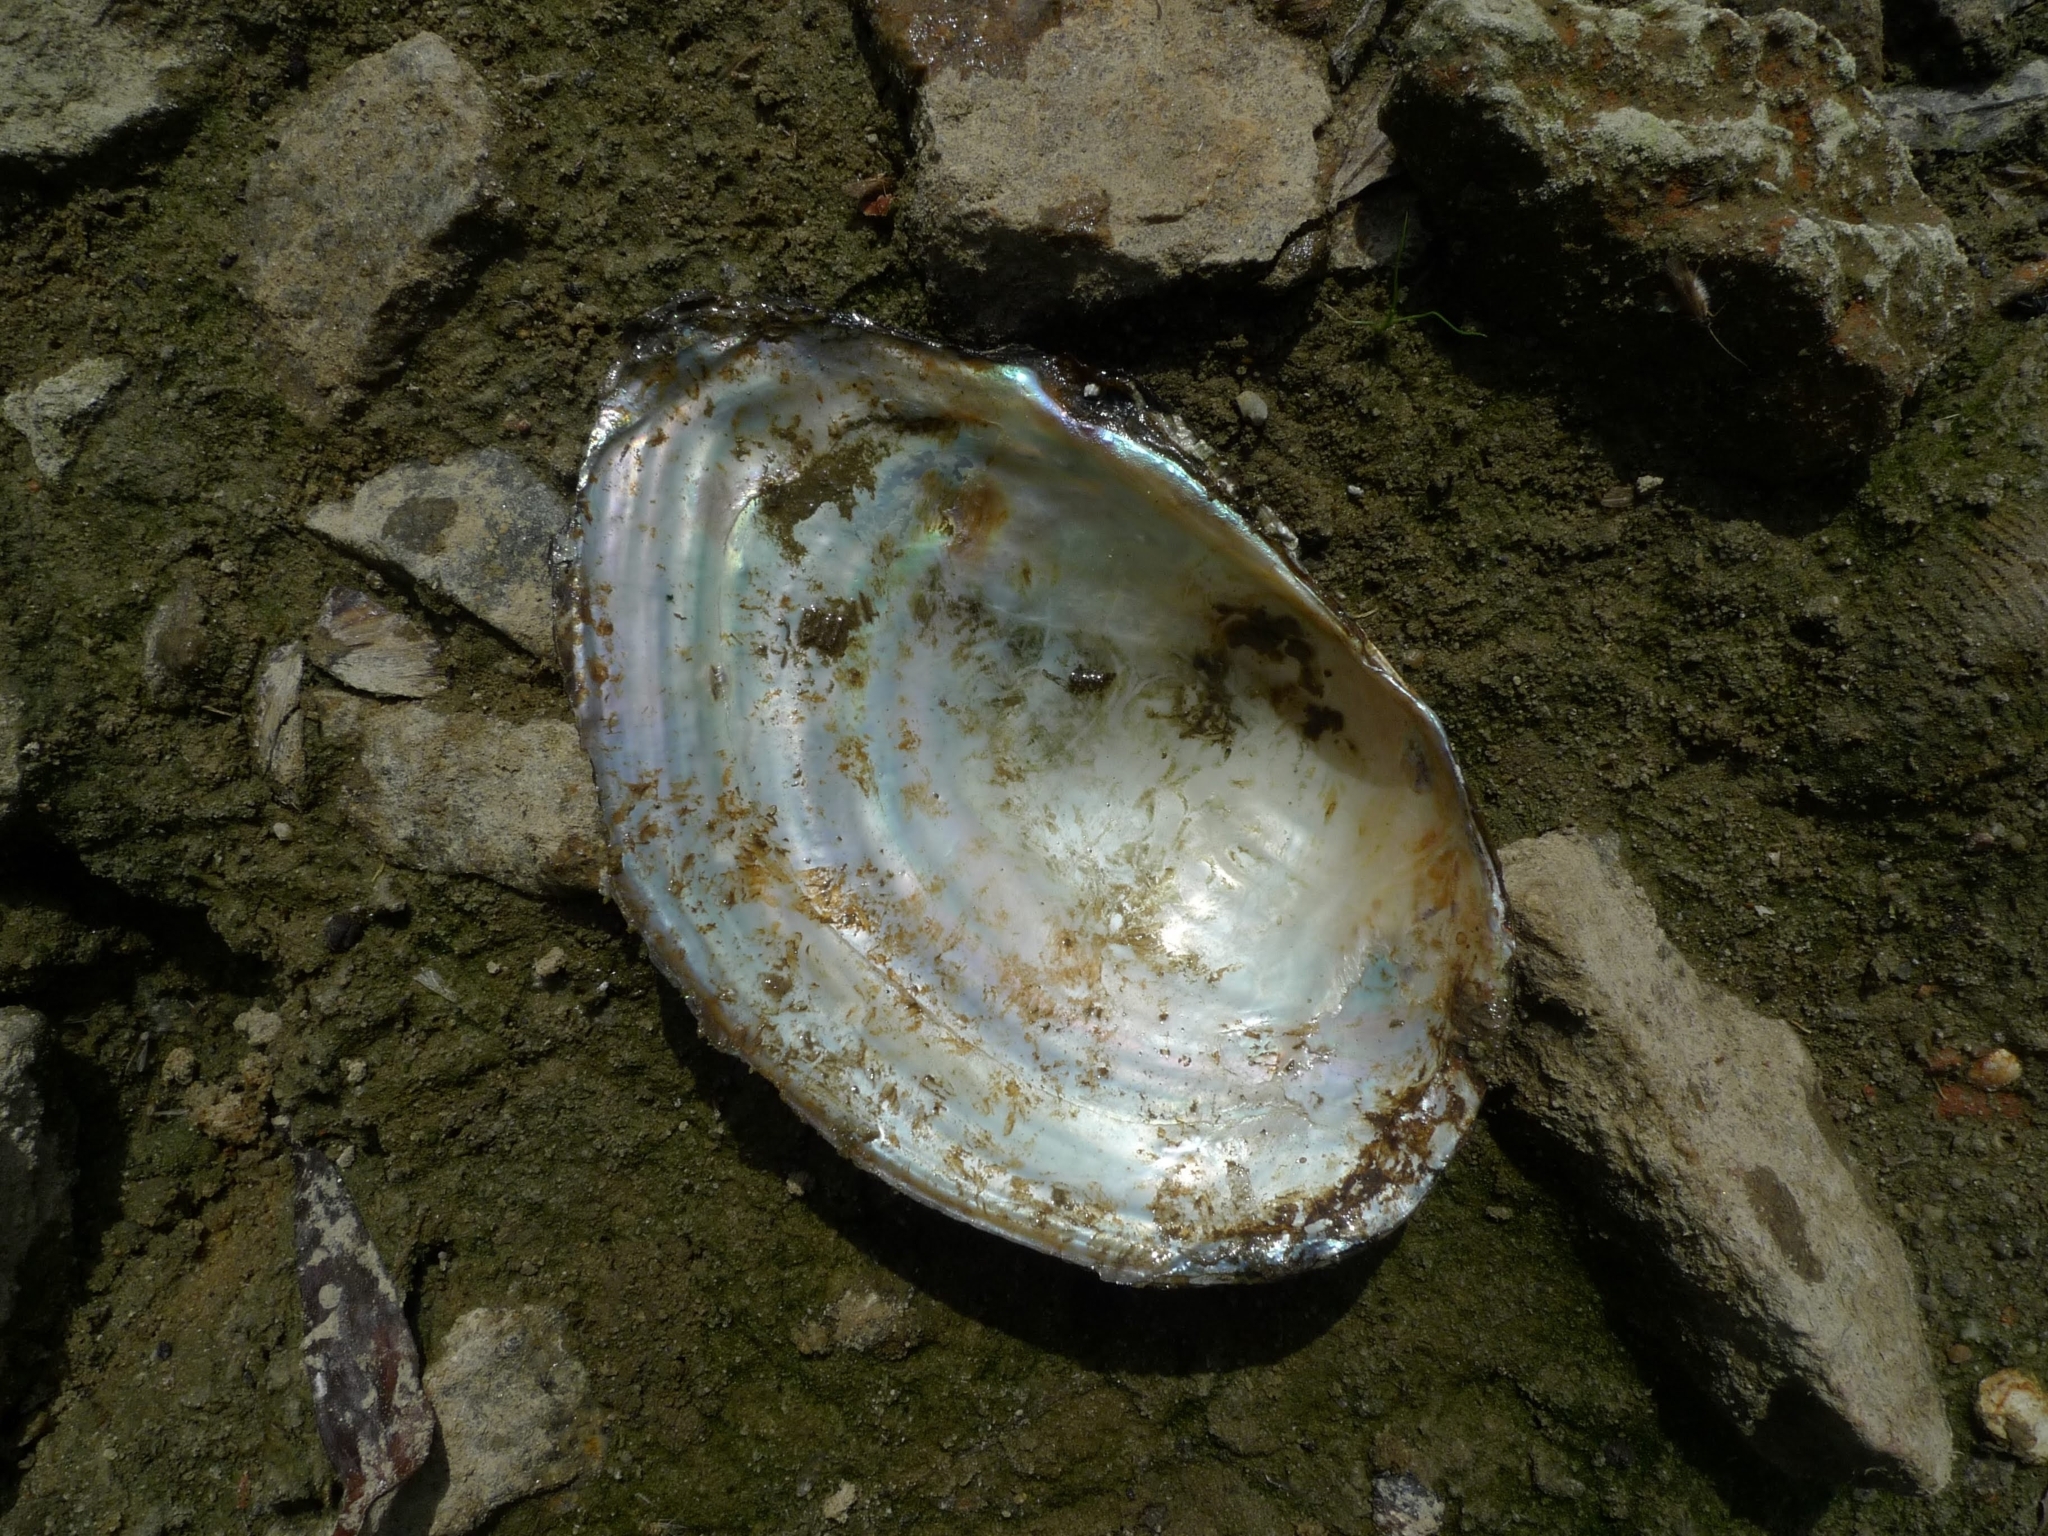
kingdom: Animalia
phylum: Mollusca
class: Bivalvia
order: Unionida
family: Unionidae
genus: Sinanodonta
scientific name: Sinanodonta woodiana
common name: Chinese pond mussel
